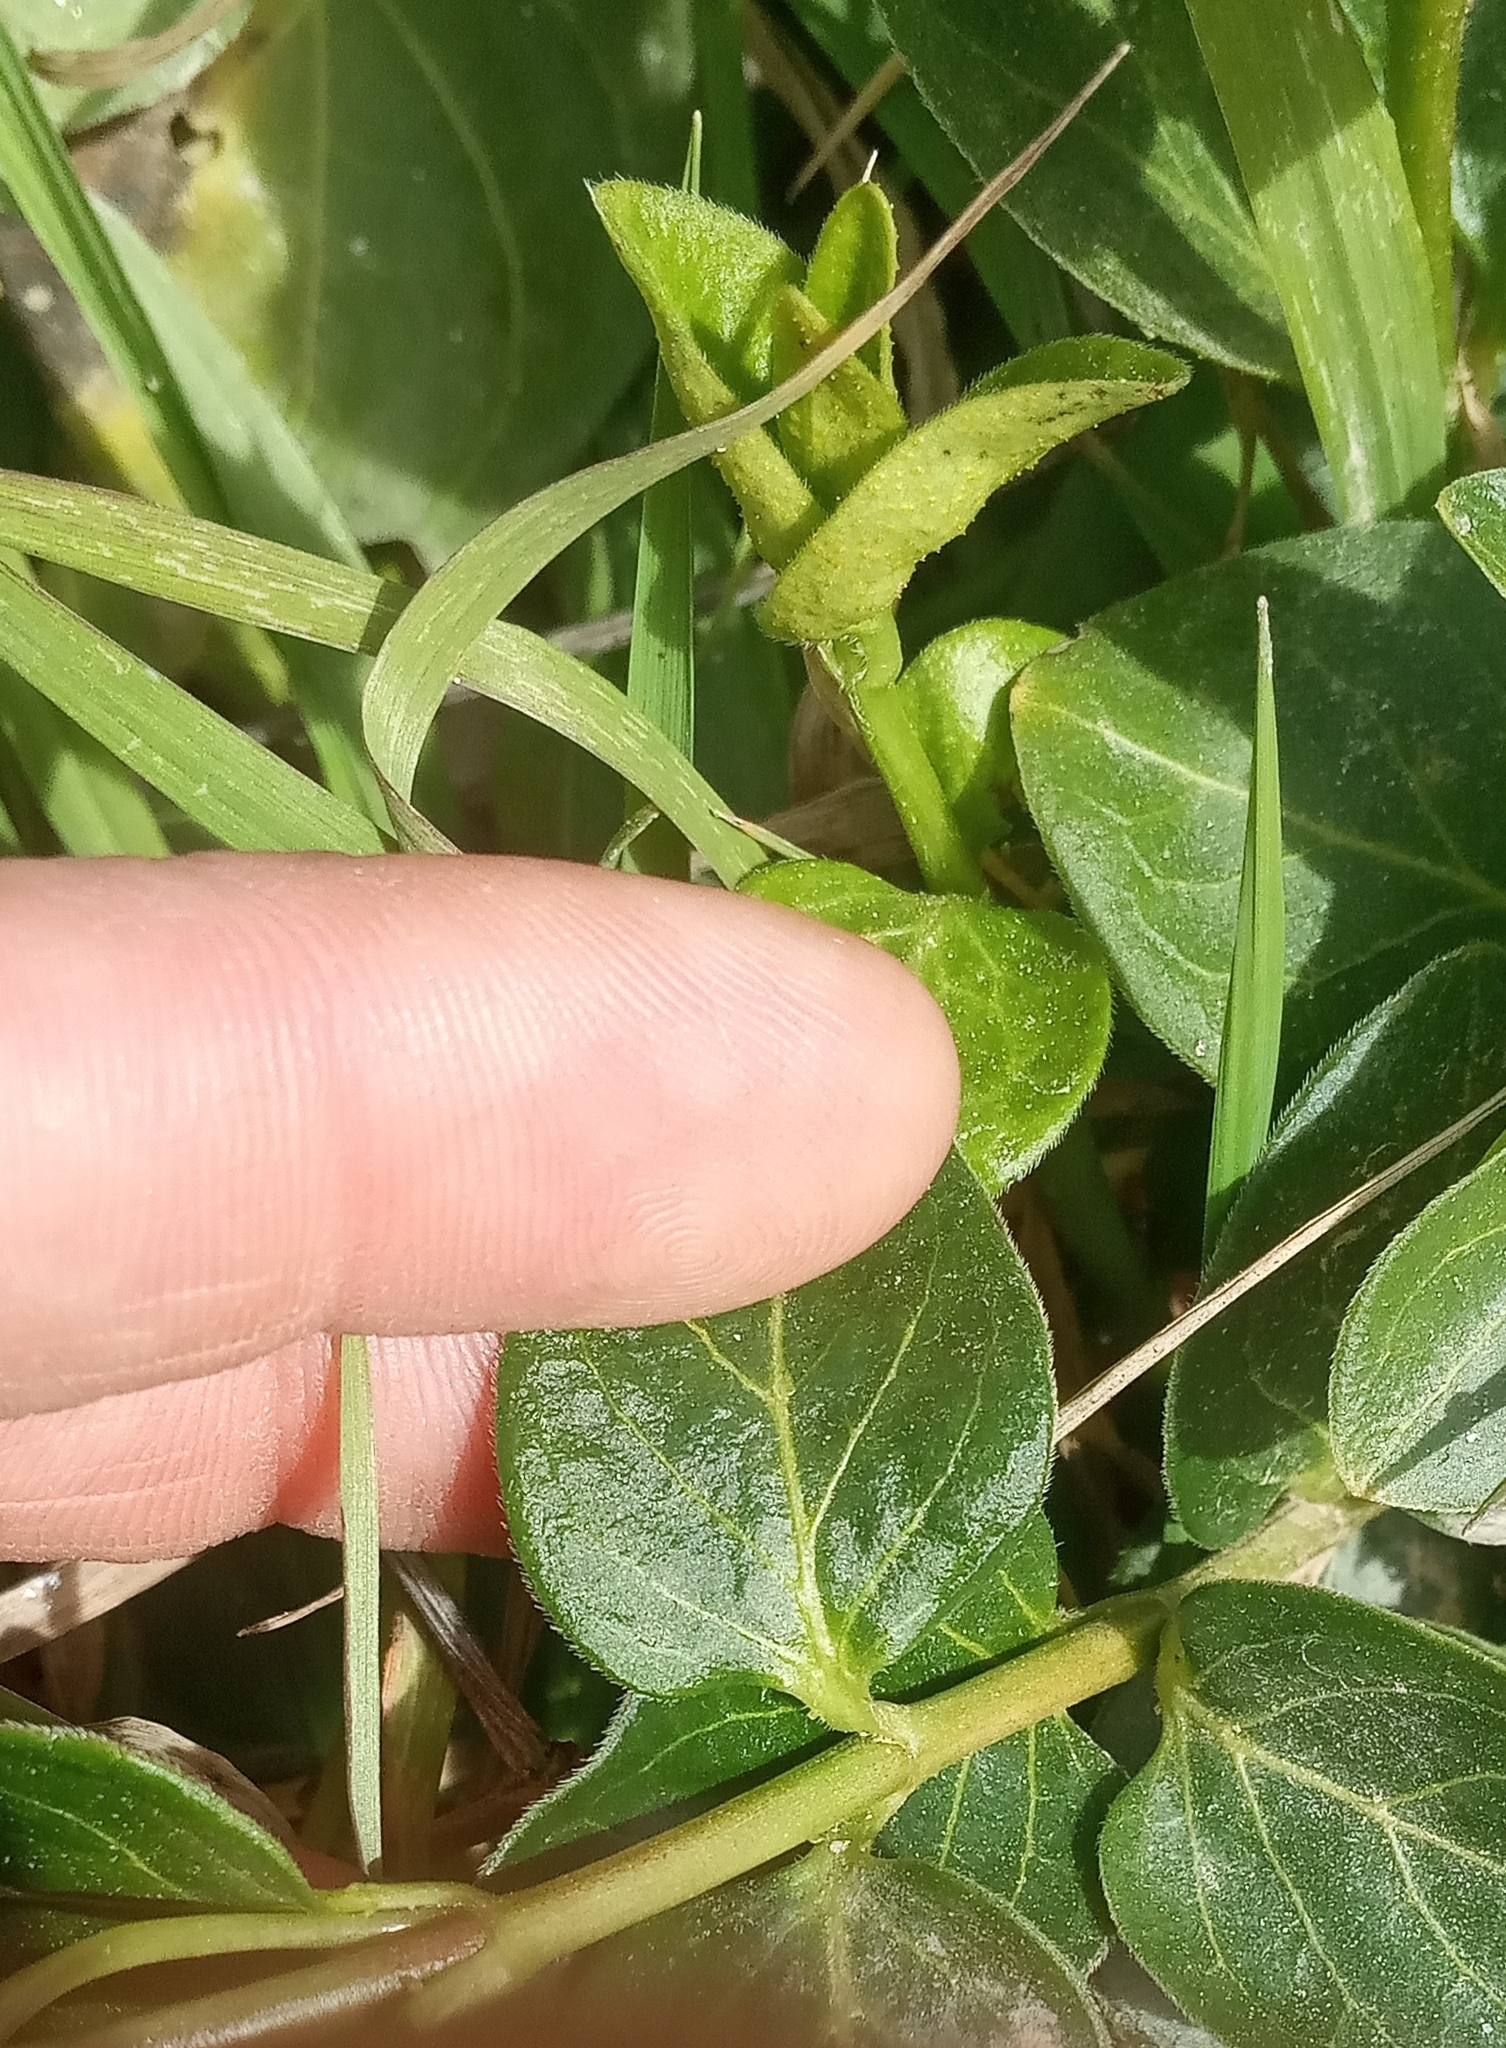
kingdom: Plantae
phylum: Tracheophyta
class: Magnoliopsida
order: Gentianales
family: Apocynaceae
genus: Vinca
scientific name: Vinca major
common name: Greater periwinkle
